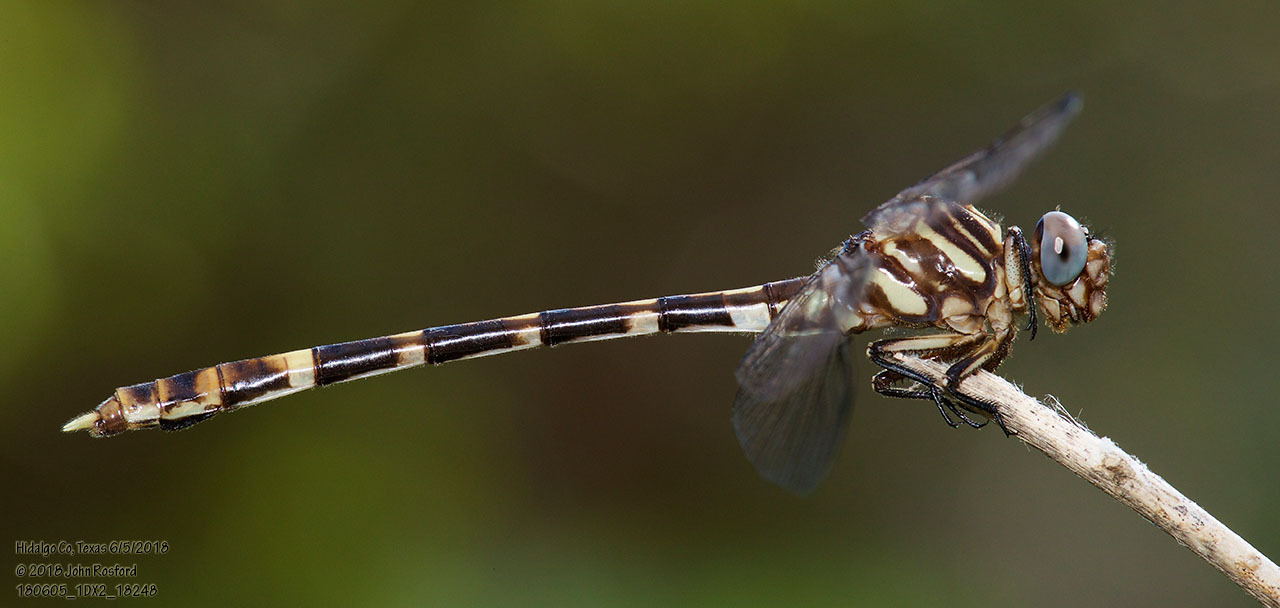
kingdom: Animalia
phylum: Arthropoda
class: Insecta
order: Odonata
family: Gomphidae
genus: Phyllogomphoides
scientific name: Phyllogomphoides albrighti
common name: Five-striped leaftail
